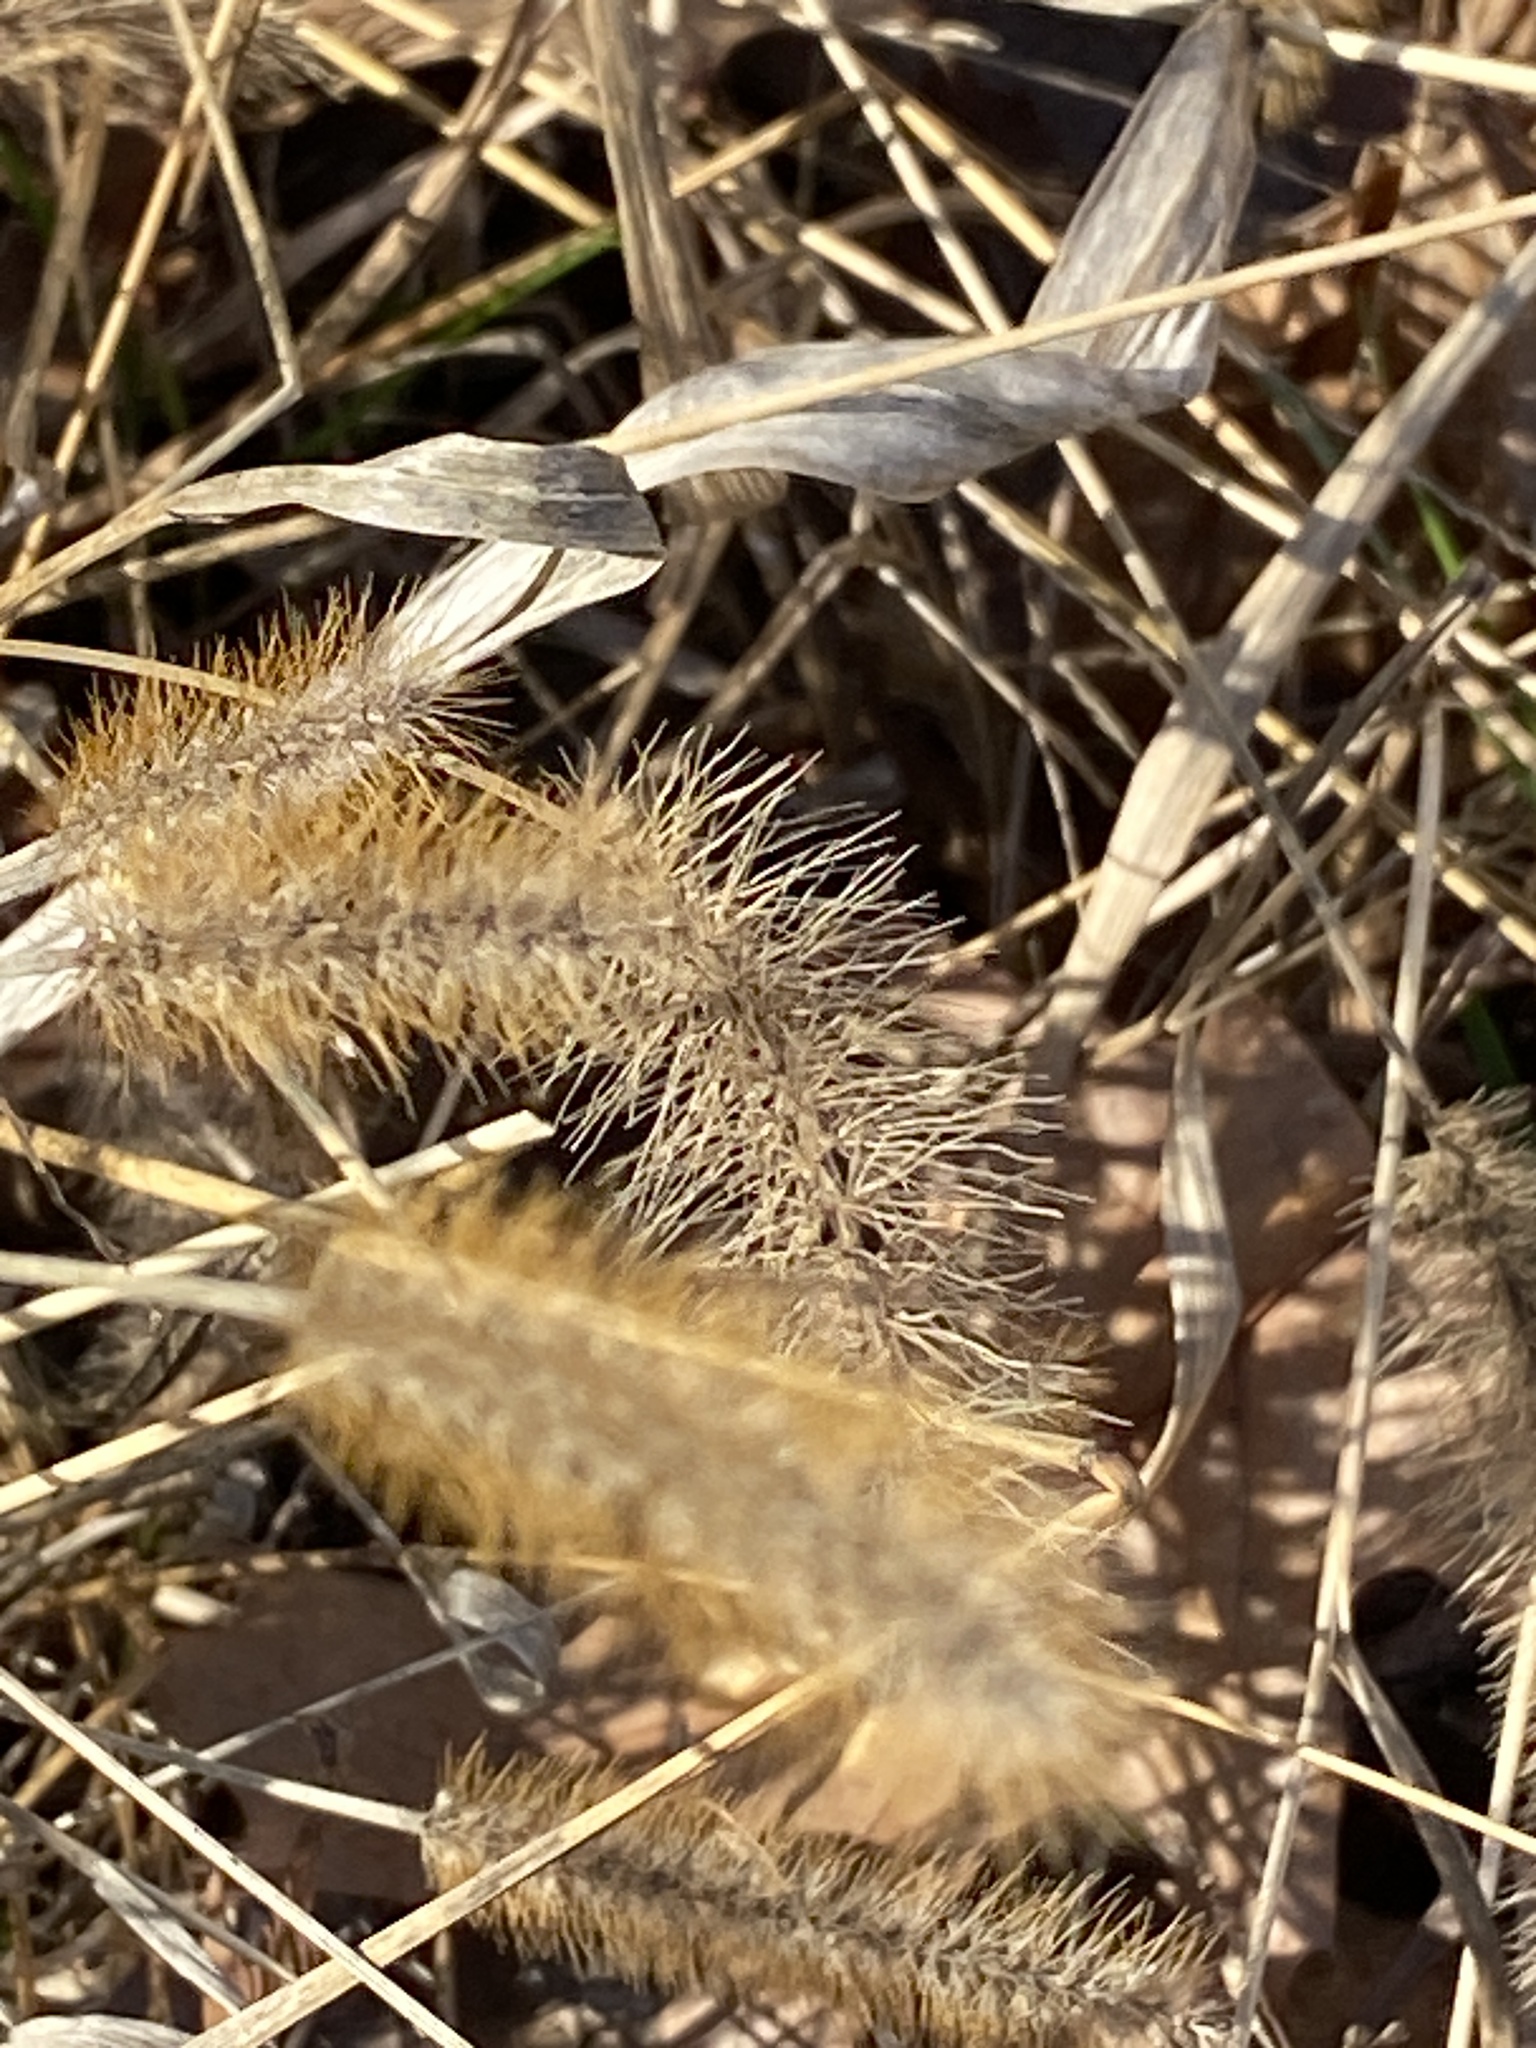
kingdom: Plantae
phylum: Tracheophyta
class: Liliopsida
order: Poales
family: Poaceae
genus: Setaria
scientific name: Setaria pumila
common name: Yellow bristle-grass
